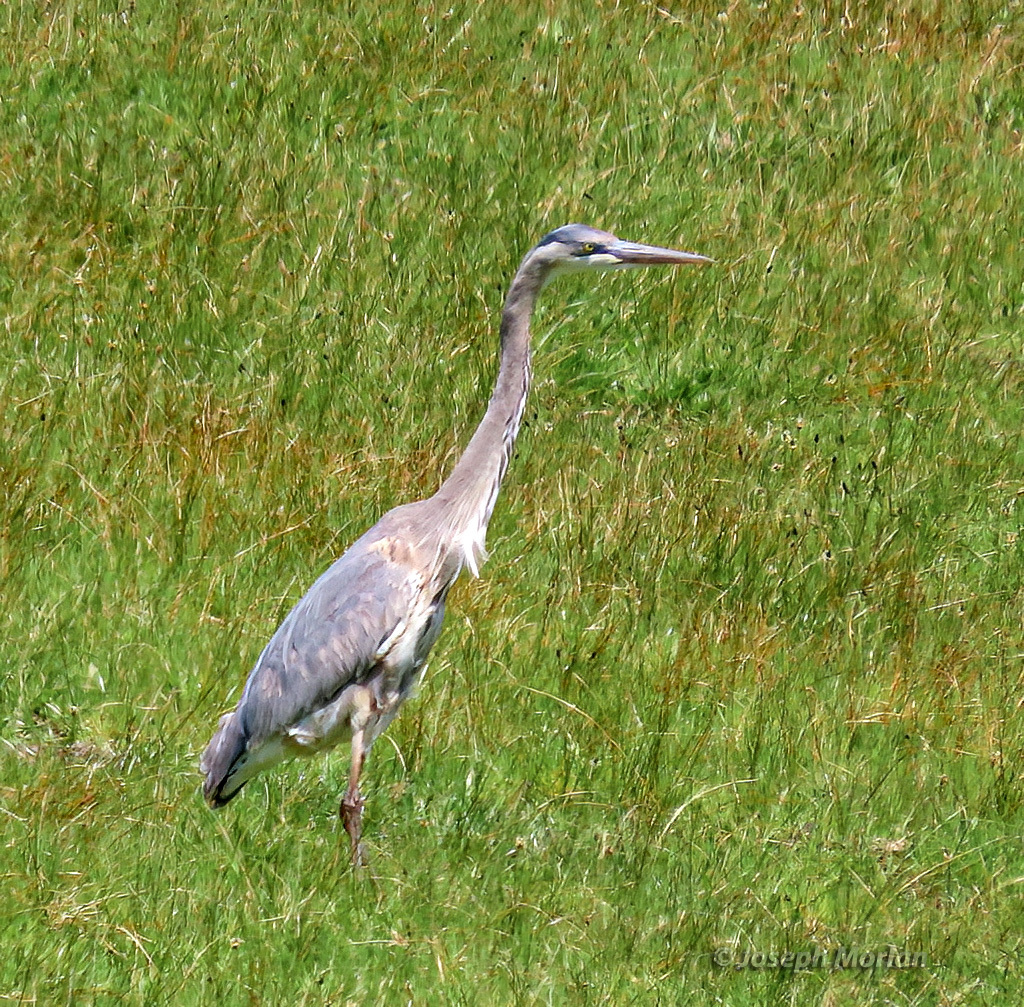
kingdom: Animalia
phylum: Chordata
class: Aves
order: Pelecaniformes
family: Ardeidae
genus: Ardea
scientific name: Ardea herodias
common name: Great blue heron
